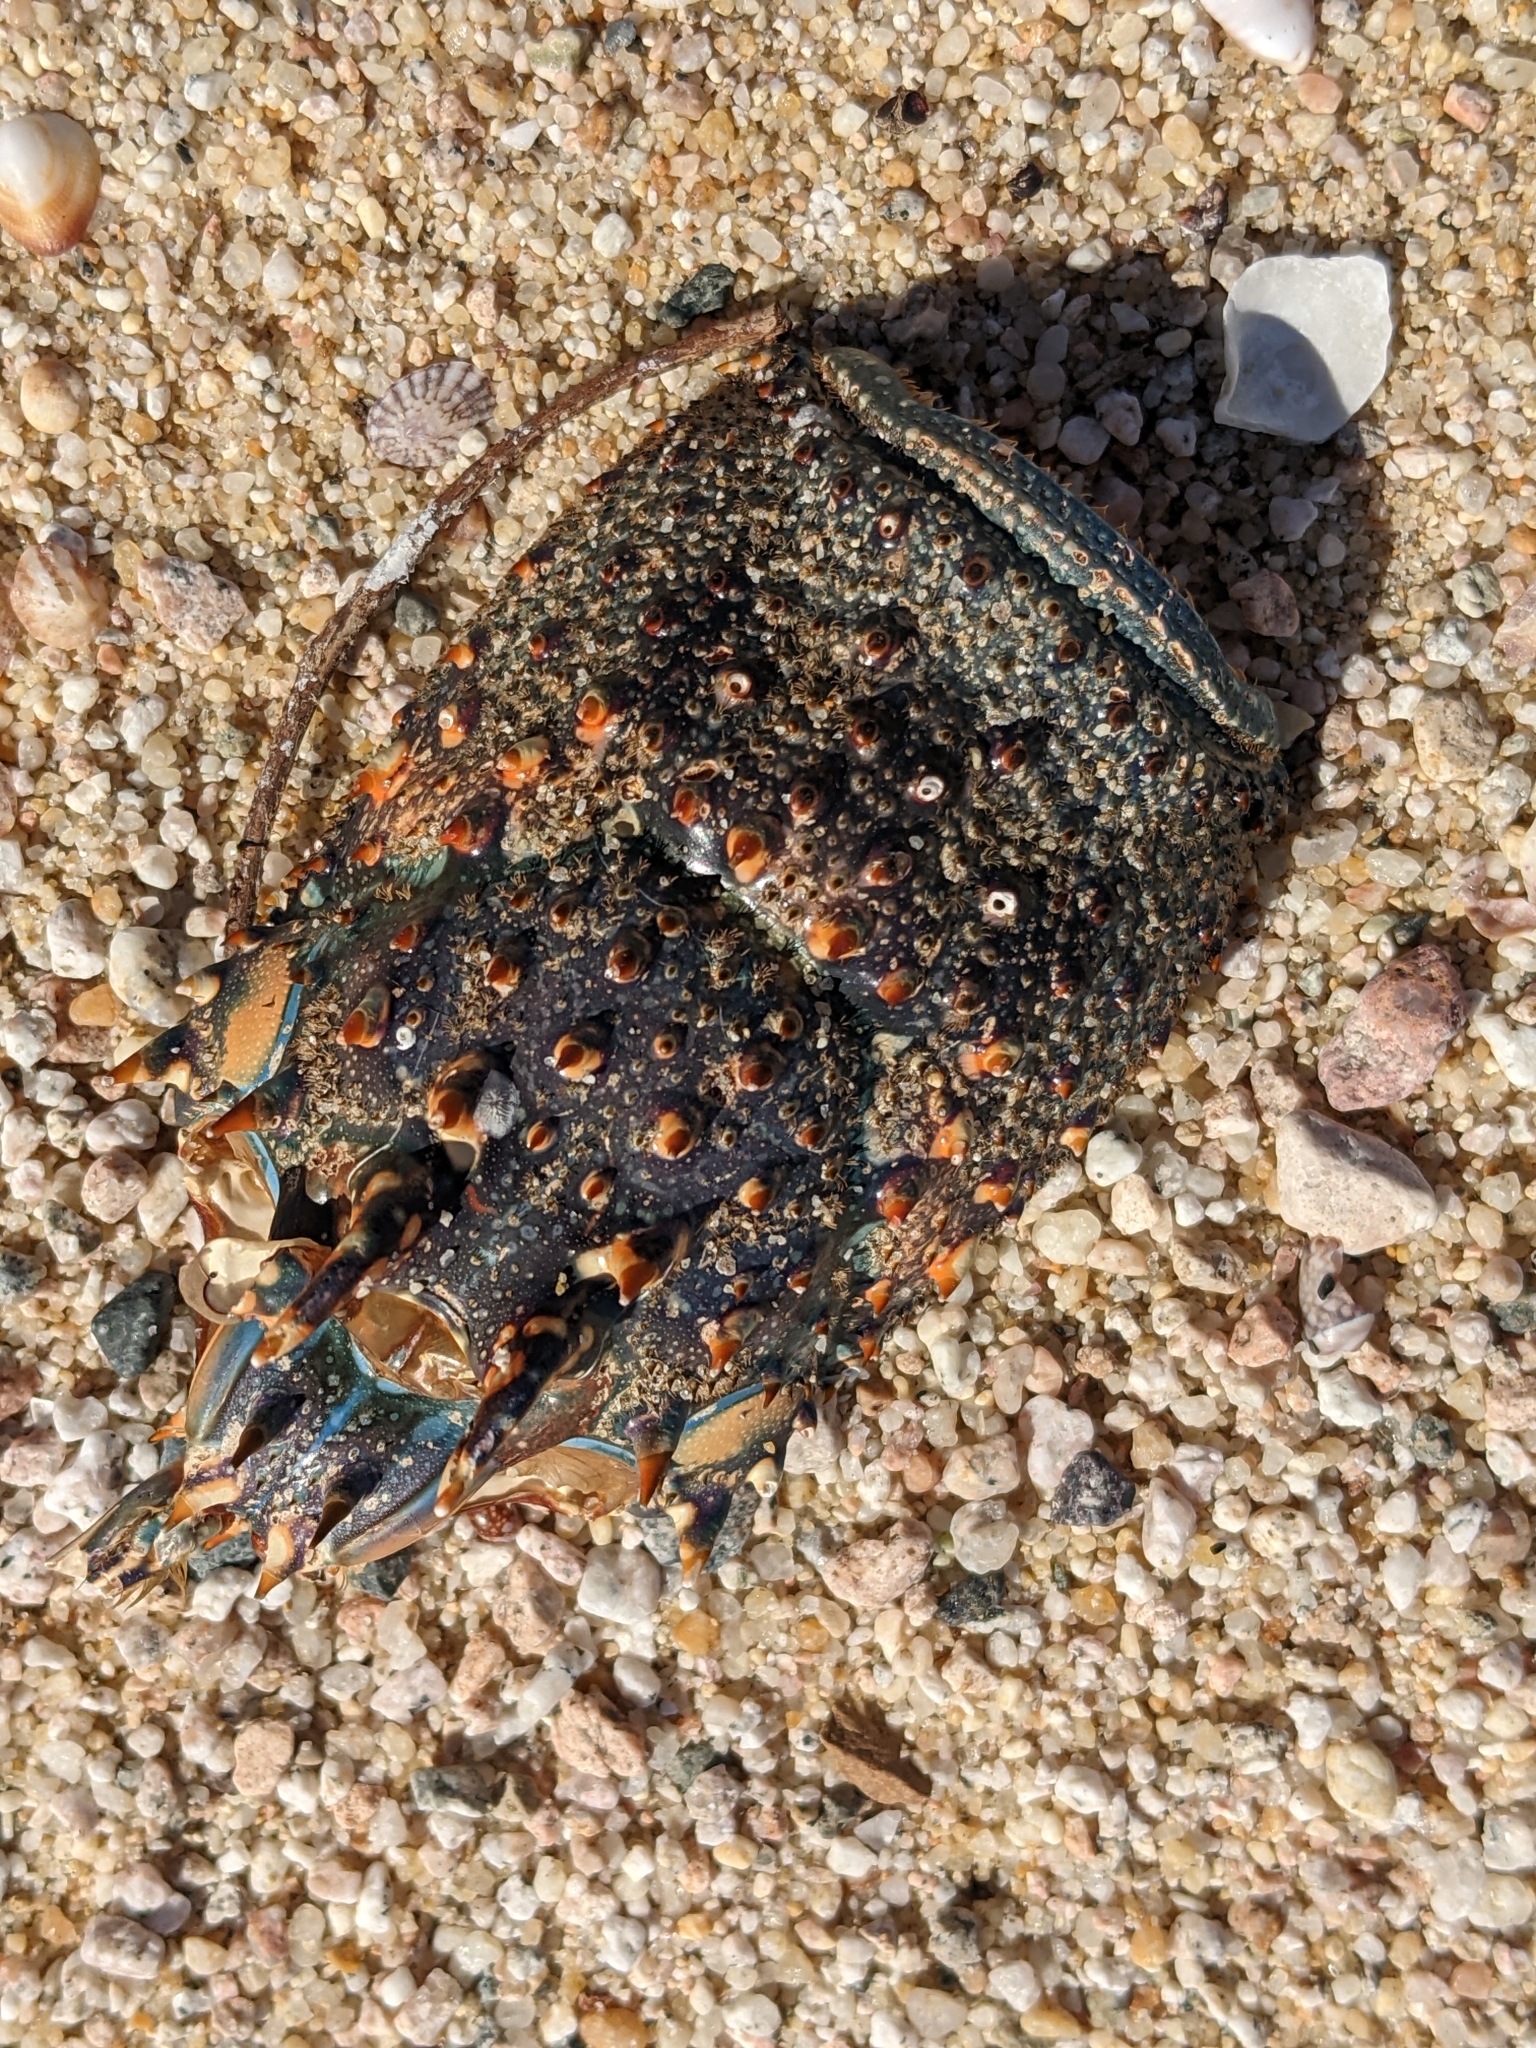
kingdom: Animalia
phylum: Arthropoda
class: Malacostraca
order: Decapoda
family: Palinuridae
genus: Panulirus
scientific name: Panulirus inflatus
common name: Blue spiny lobster
